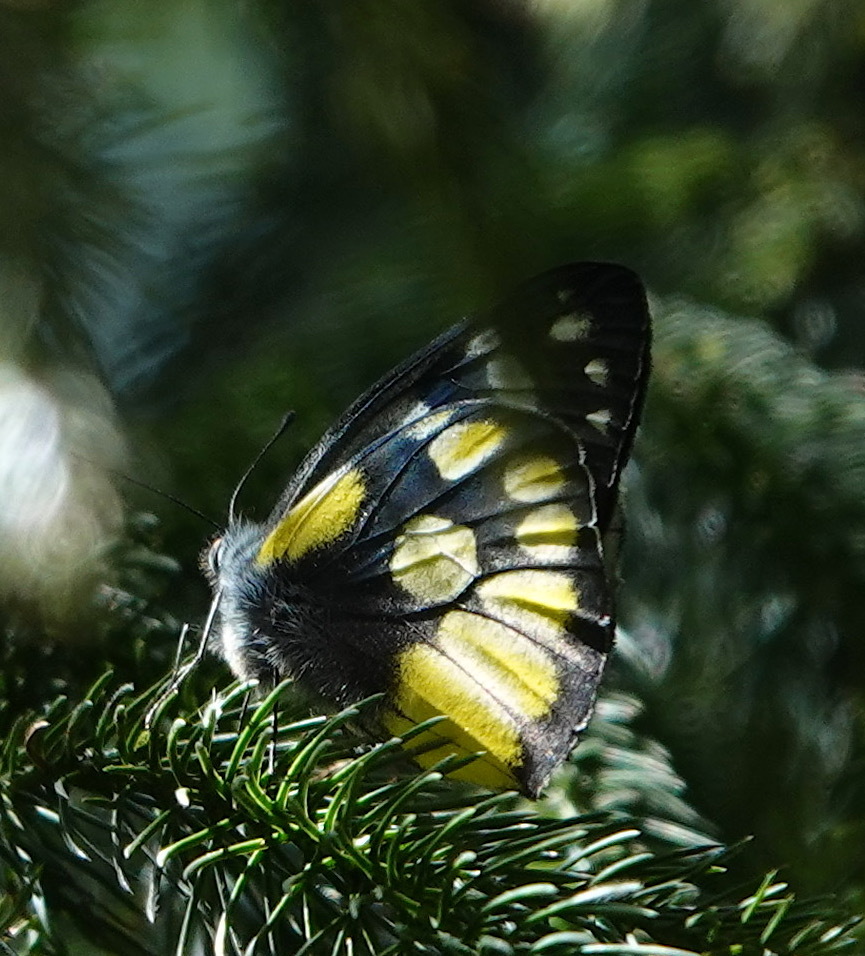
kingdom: Animalia
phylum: Arthropoda
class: Insecta
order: Lepidoptera
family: Pieridae
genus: Delias
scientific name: Delias cinerascens
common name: Kinabalu jezebel
